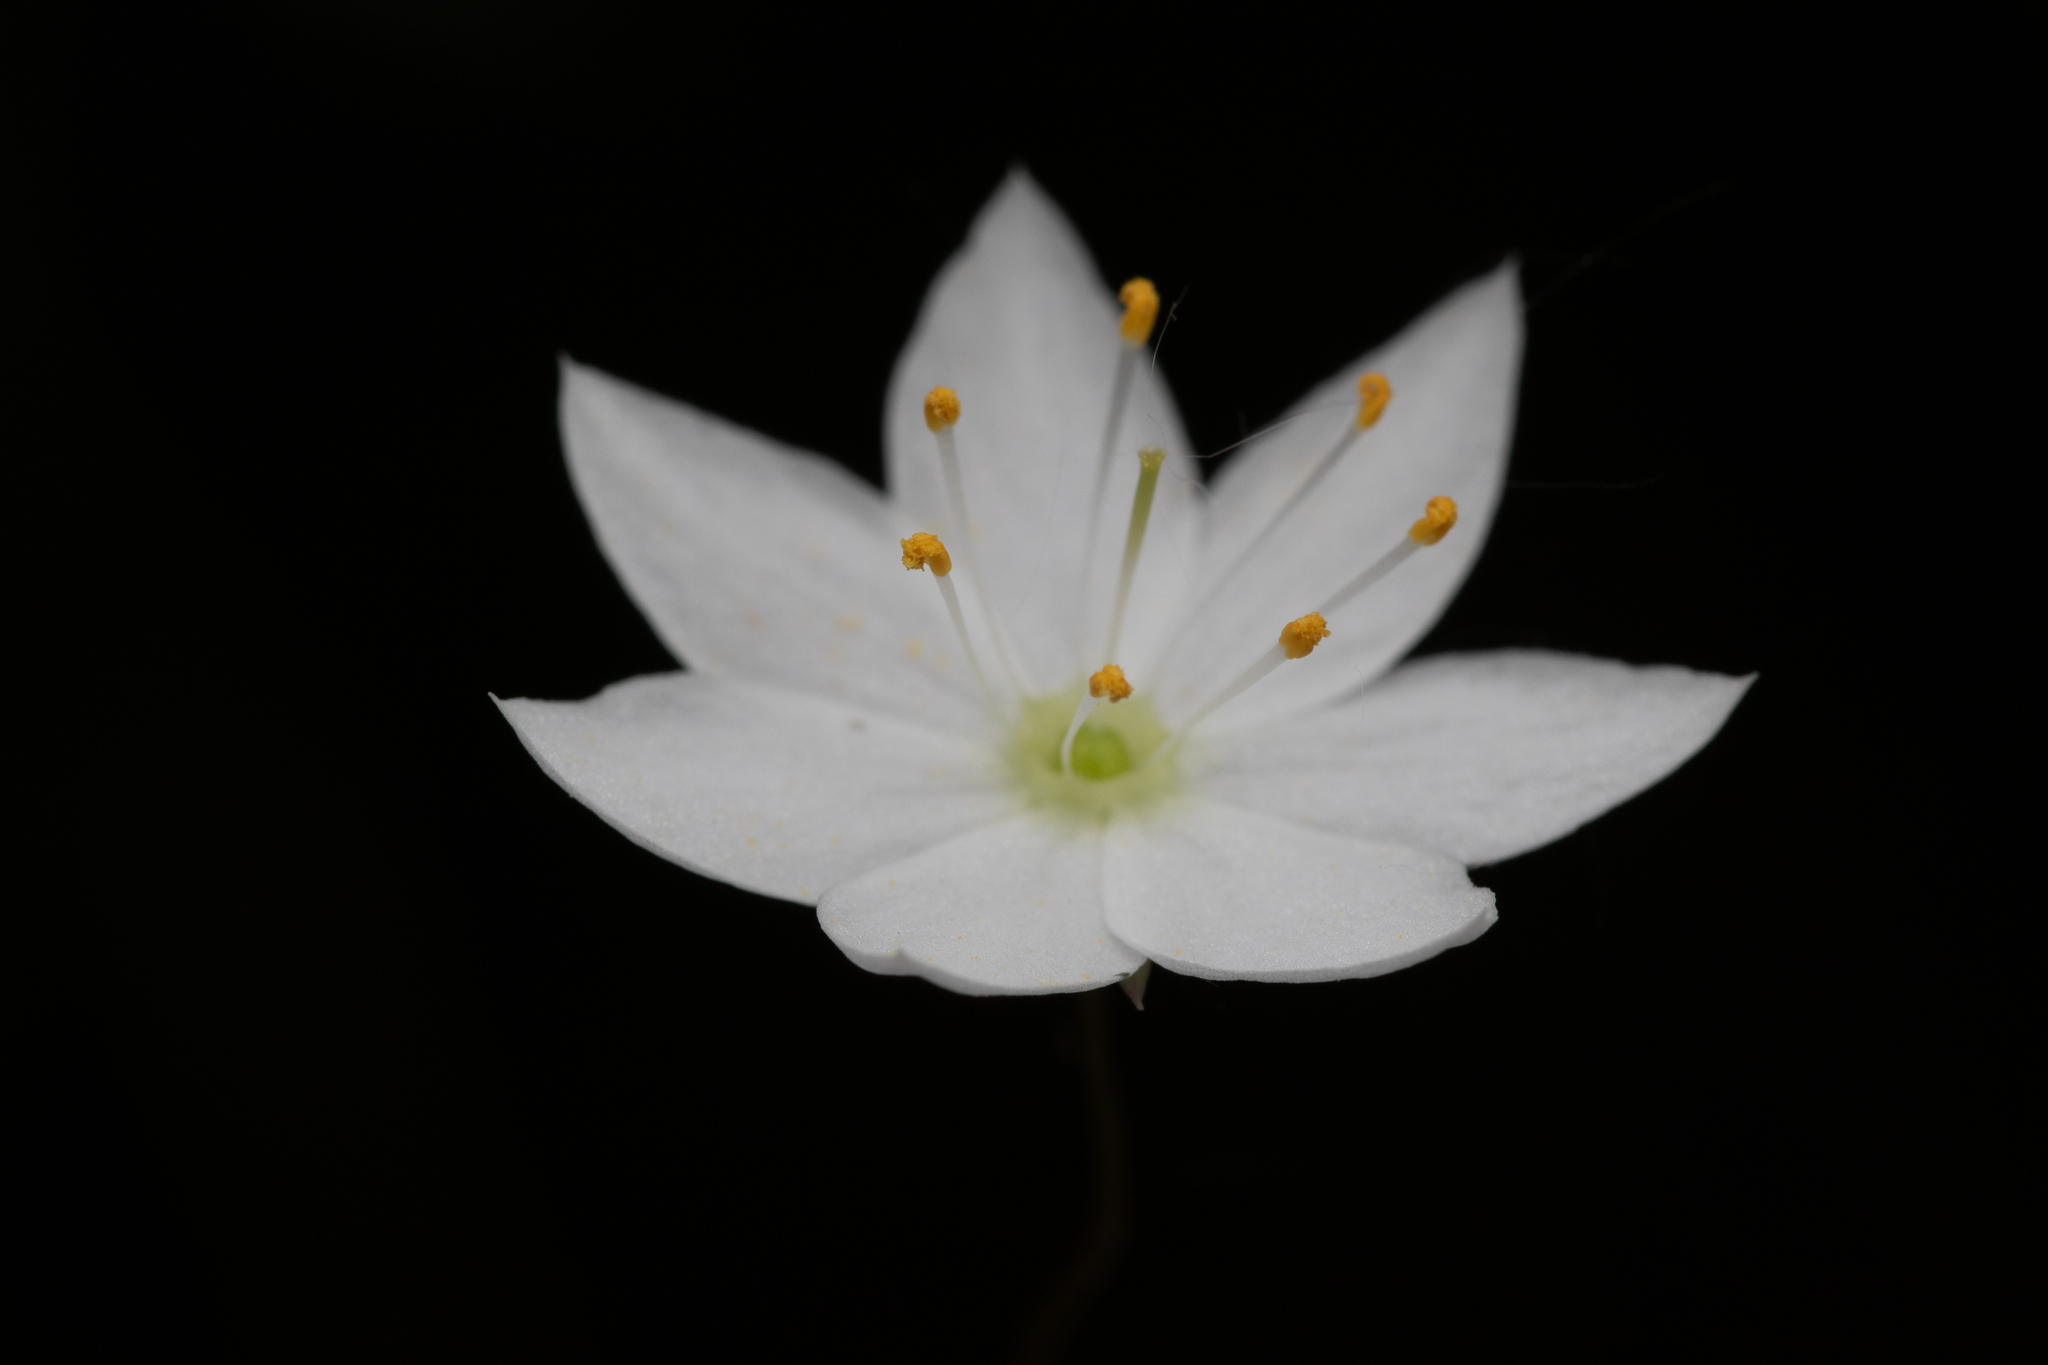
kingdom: Plantae
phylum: Tracheophyta
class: Magnoliopsida
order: Ericales
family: Primulaceae
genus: Lysimachia
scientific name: Lysimachia europaea
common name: Arctic starflower
